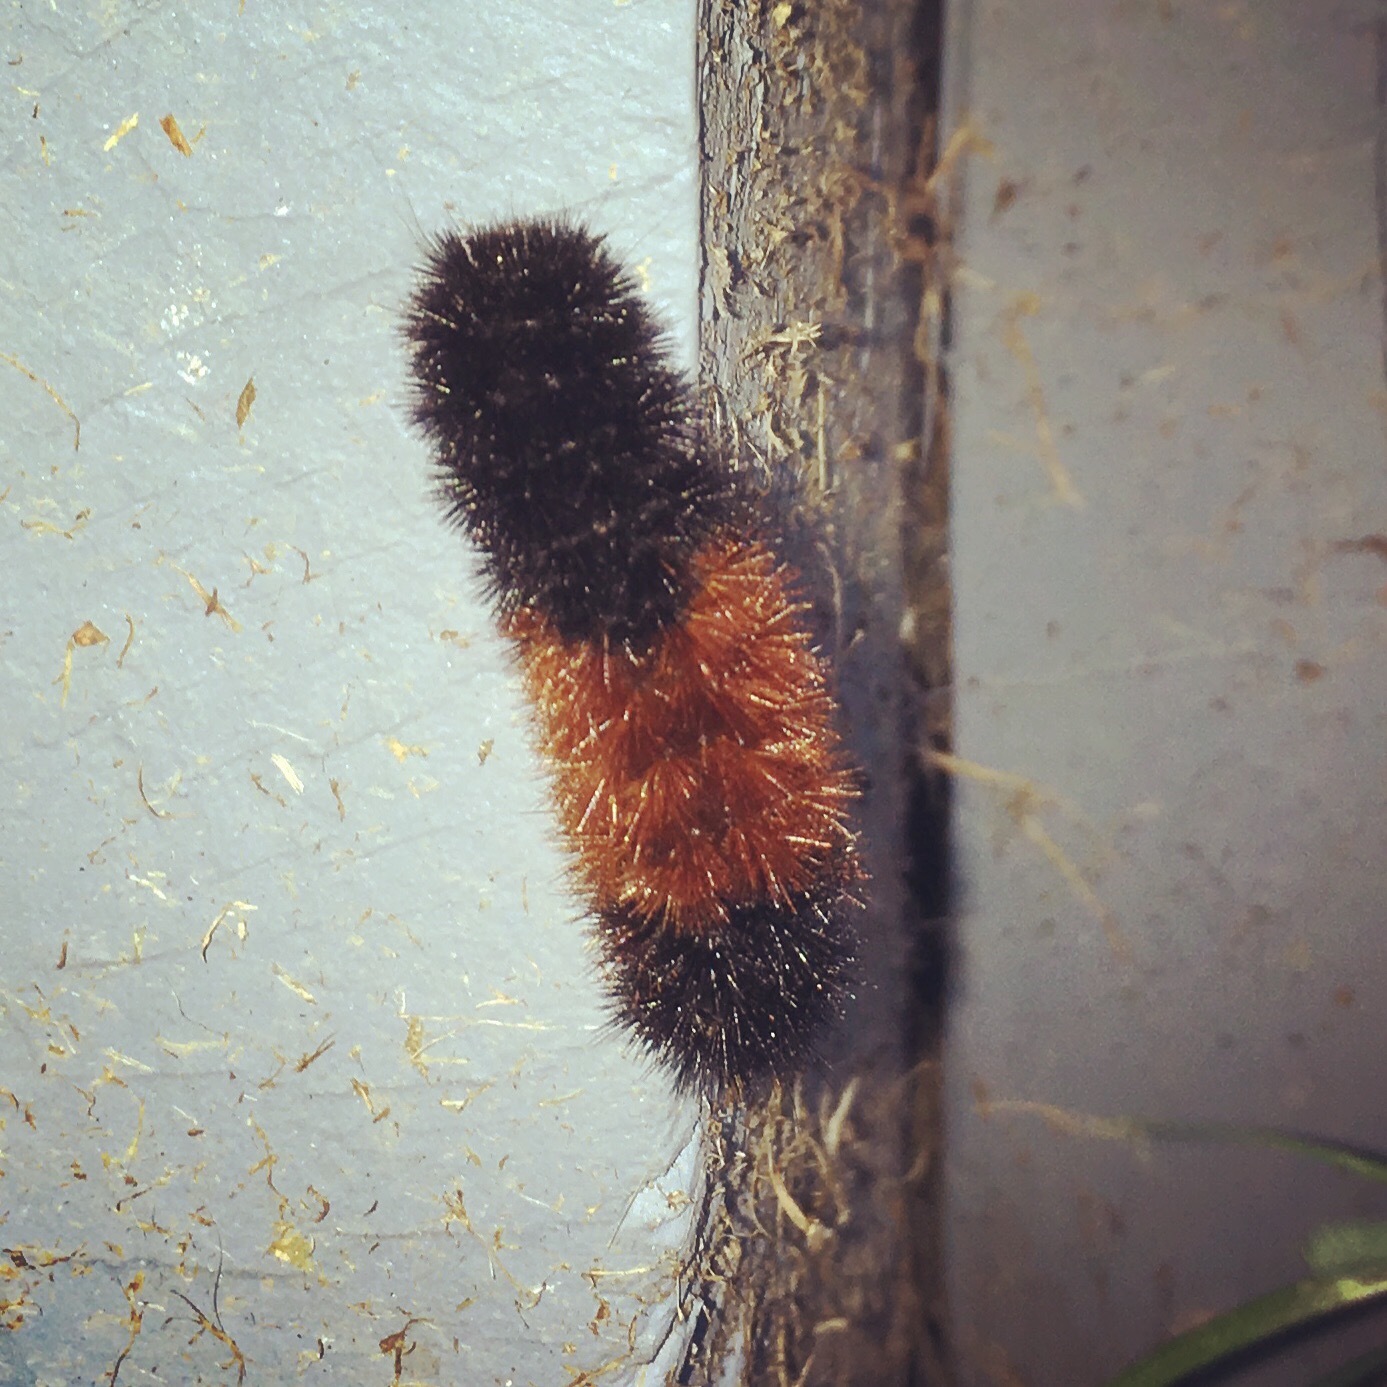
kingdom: Animalia
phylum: Arthropoda
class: Insecta
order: Lepidoptera
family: Erebidae
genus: Pyrrharctia
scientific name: Pyrrharctia isabella
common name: Isabella tiger moth
